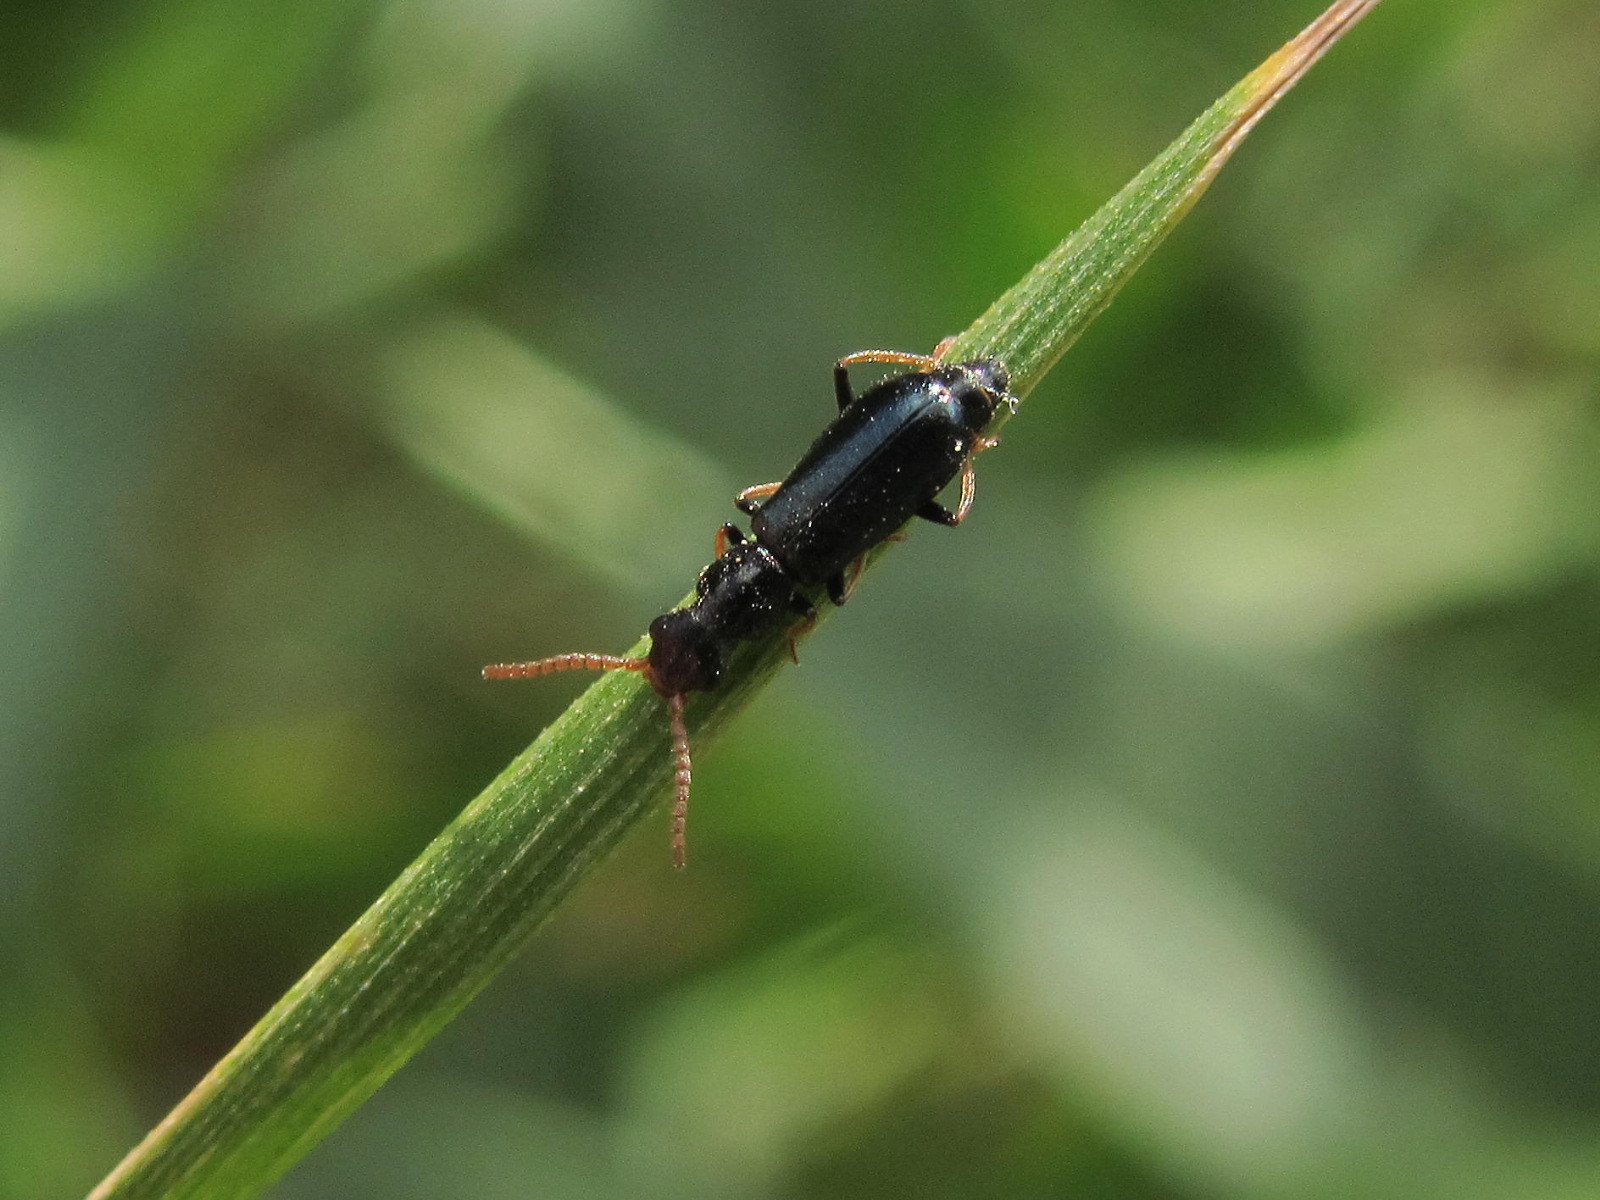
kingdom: Animalia
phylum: Arthropoda
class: Insecta
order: Coleoptera
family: Malachiidae
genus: Apalochrus
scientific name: Apalochrus femoralis
